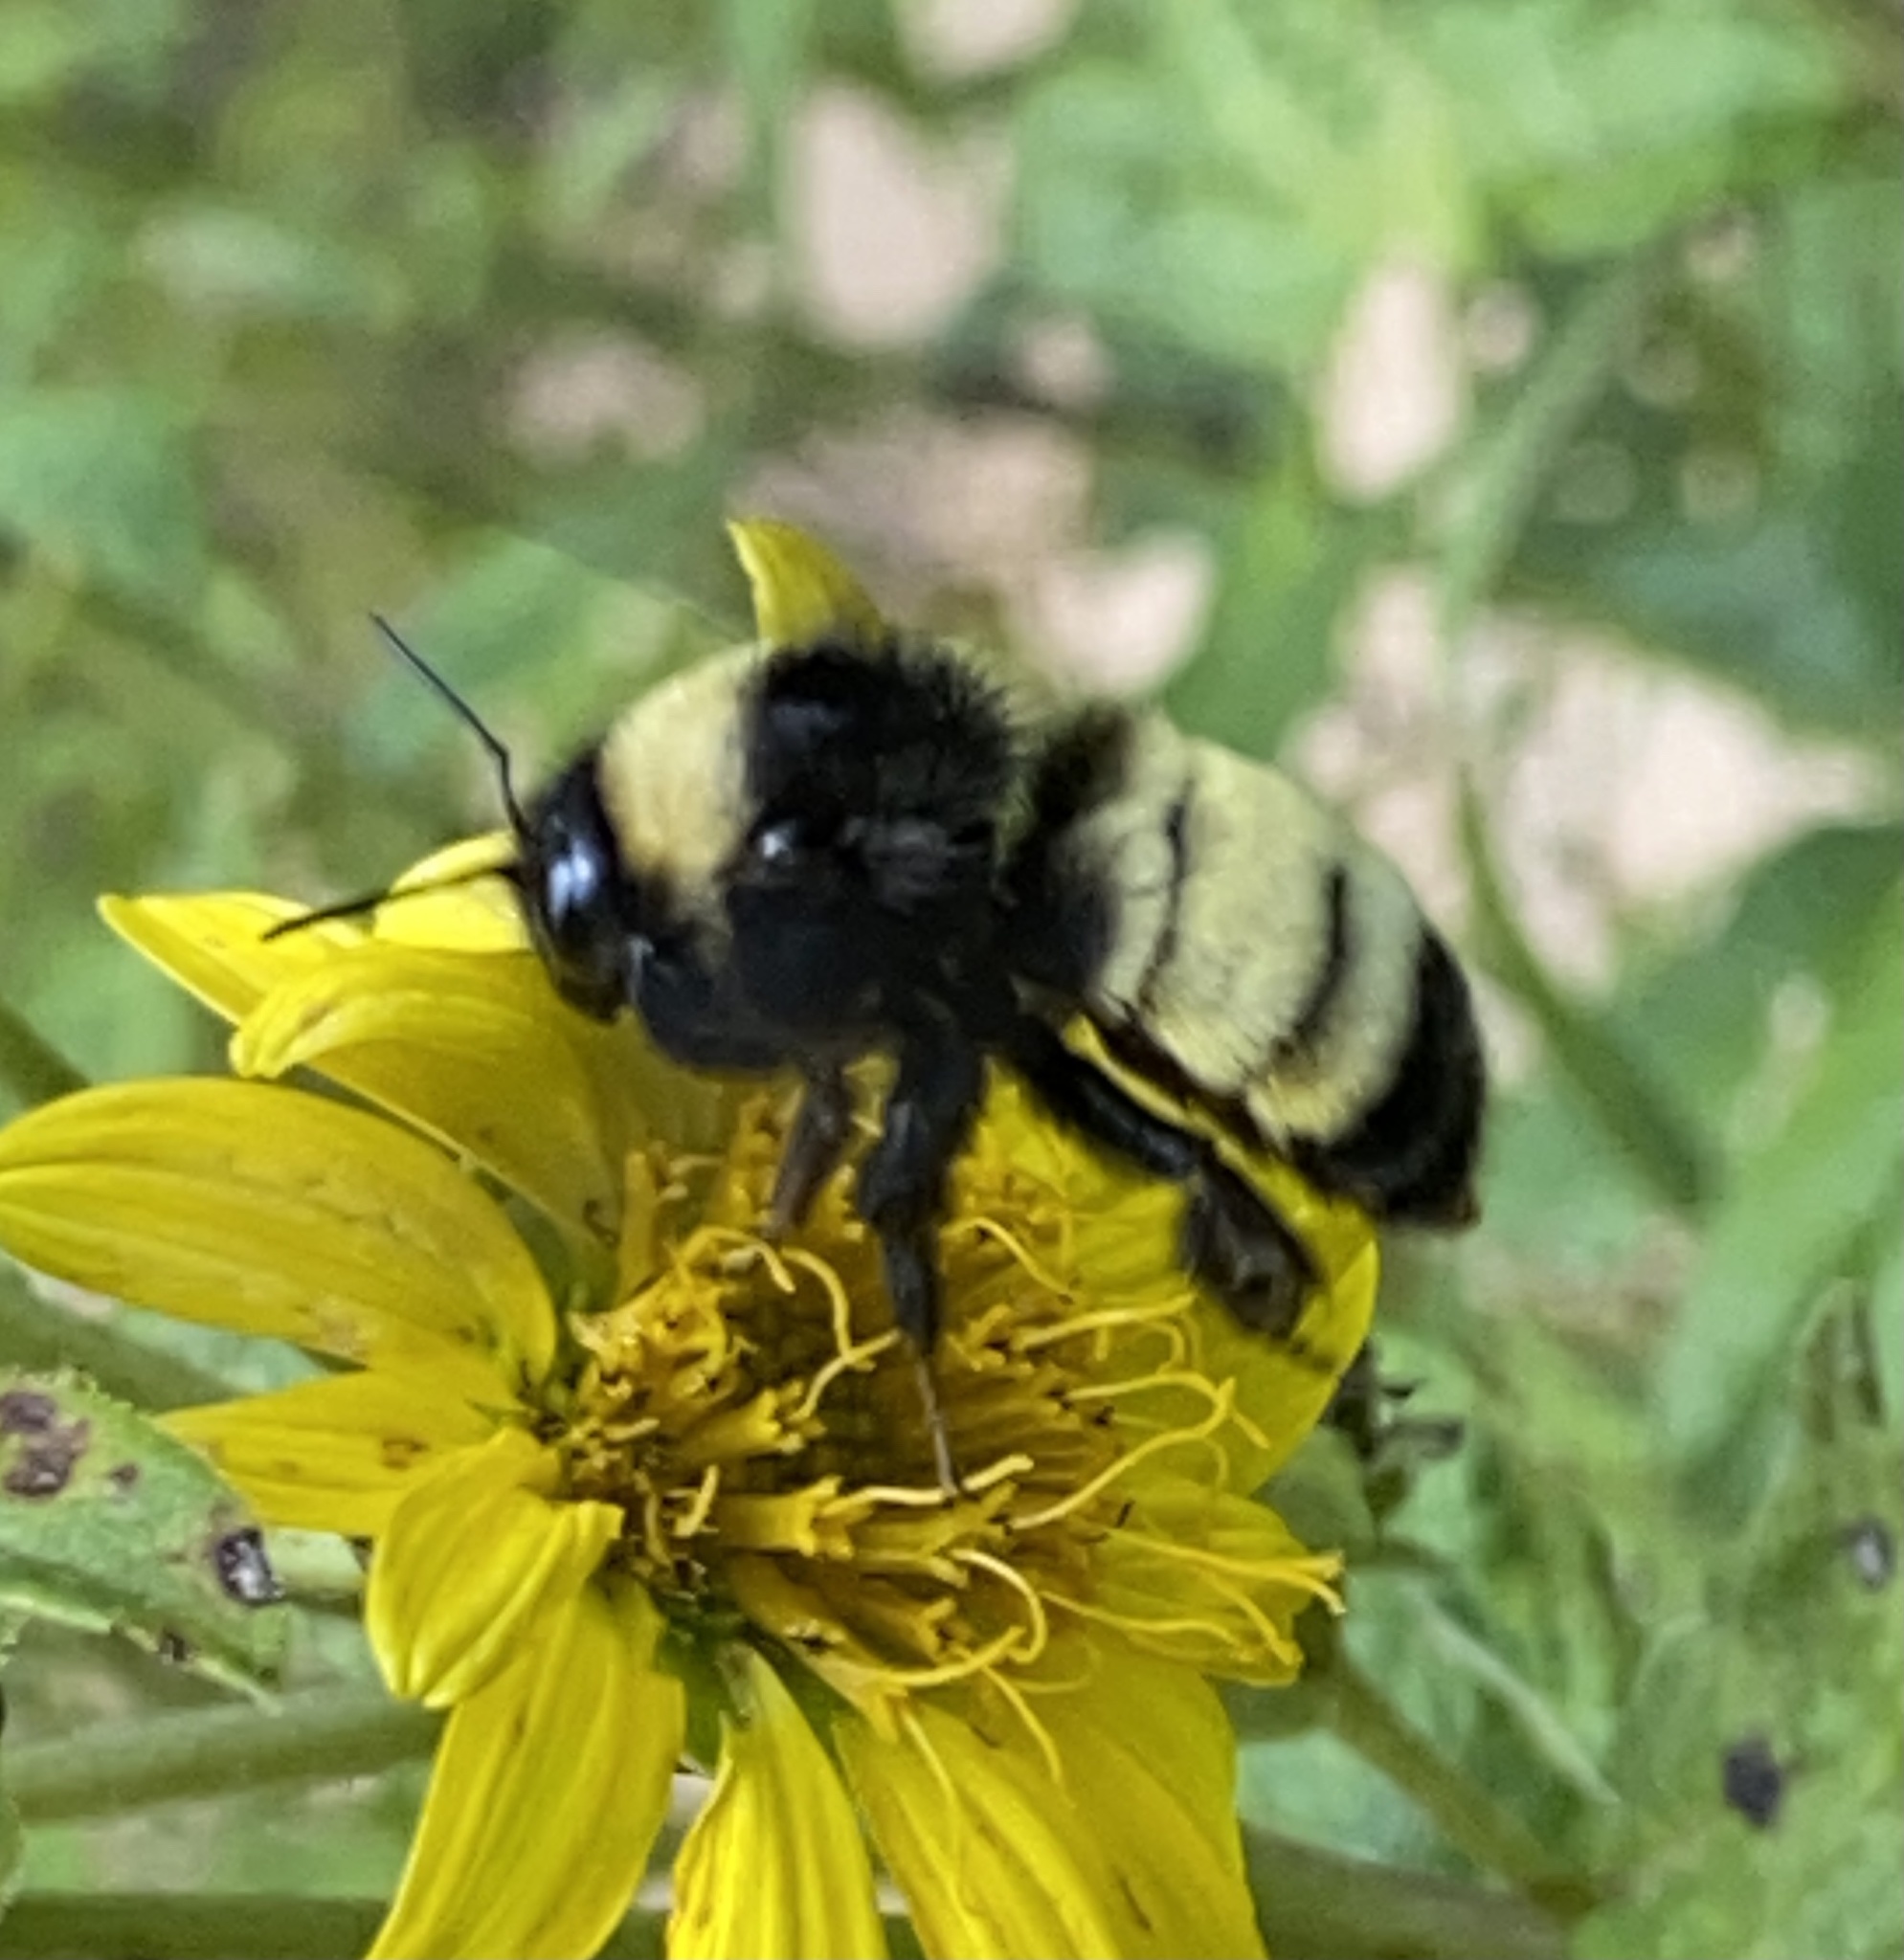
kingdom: Animalia
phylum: Arthropoda
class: Insecta
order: Hymenoptera
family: Apidae
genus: Bombus
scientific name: Bombus pensylvanicus
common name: Bumble bee
